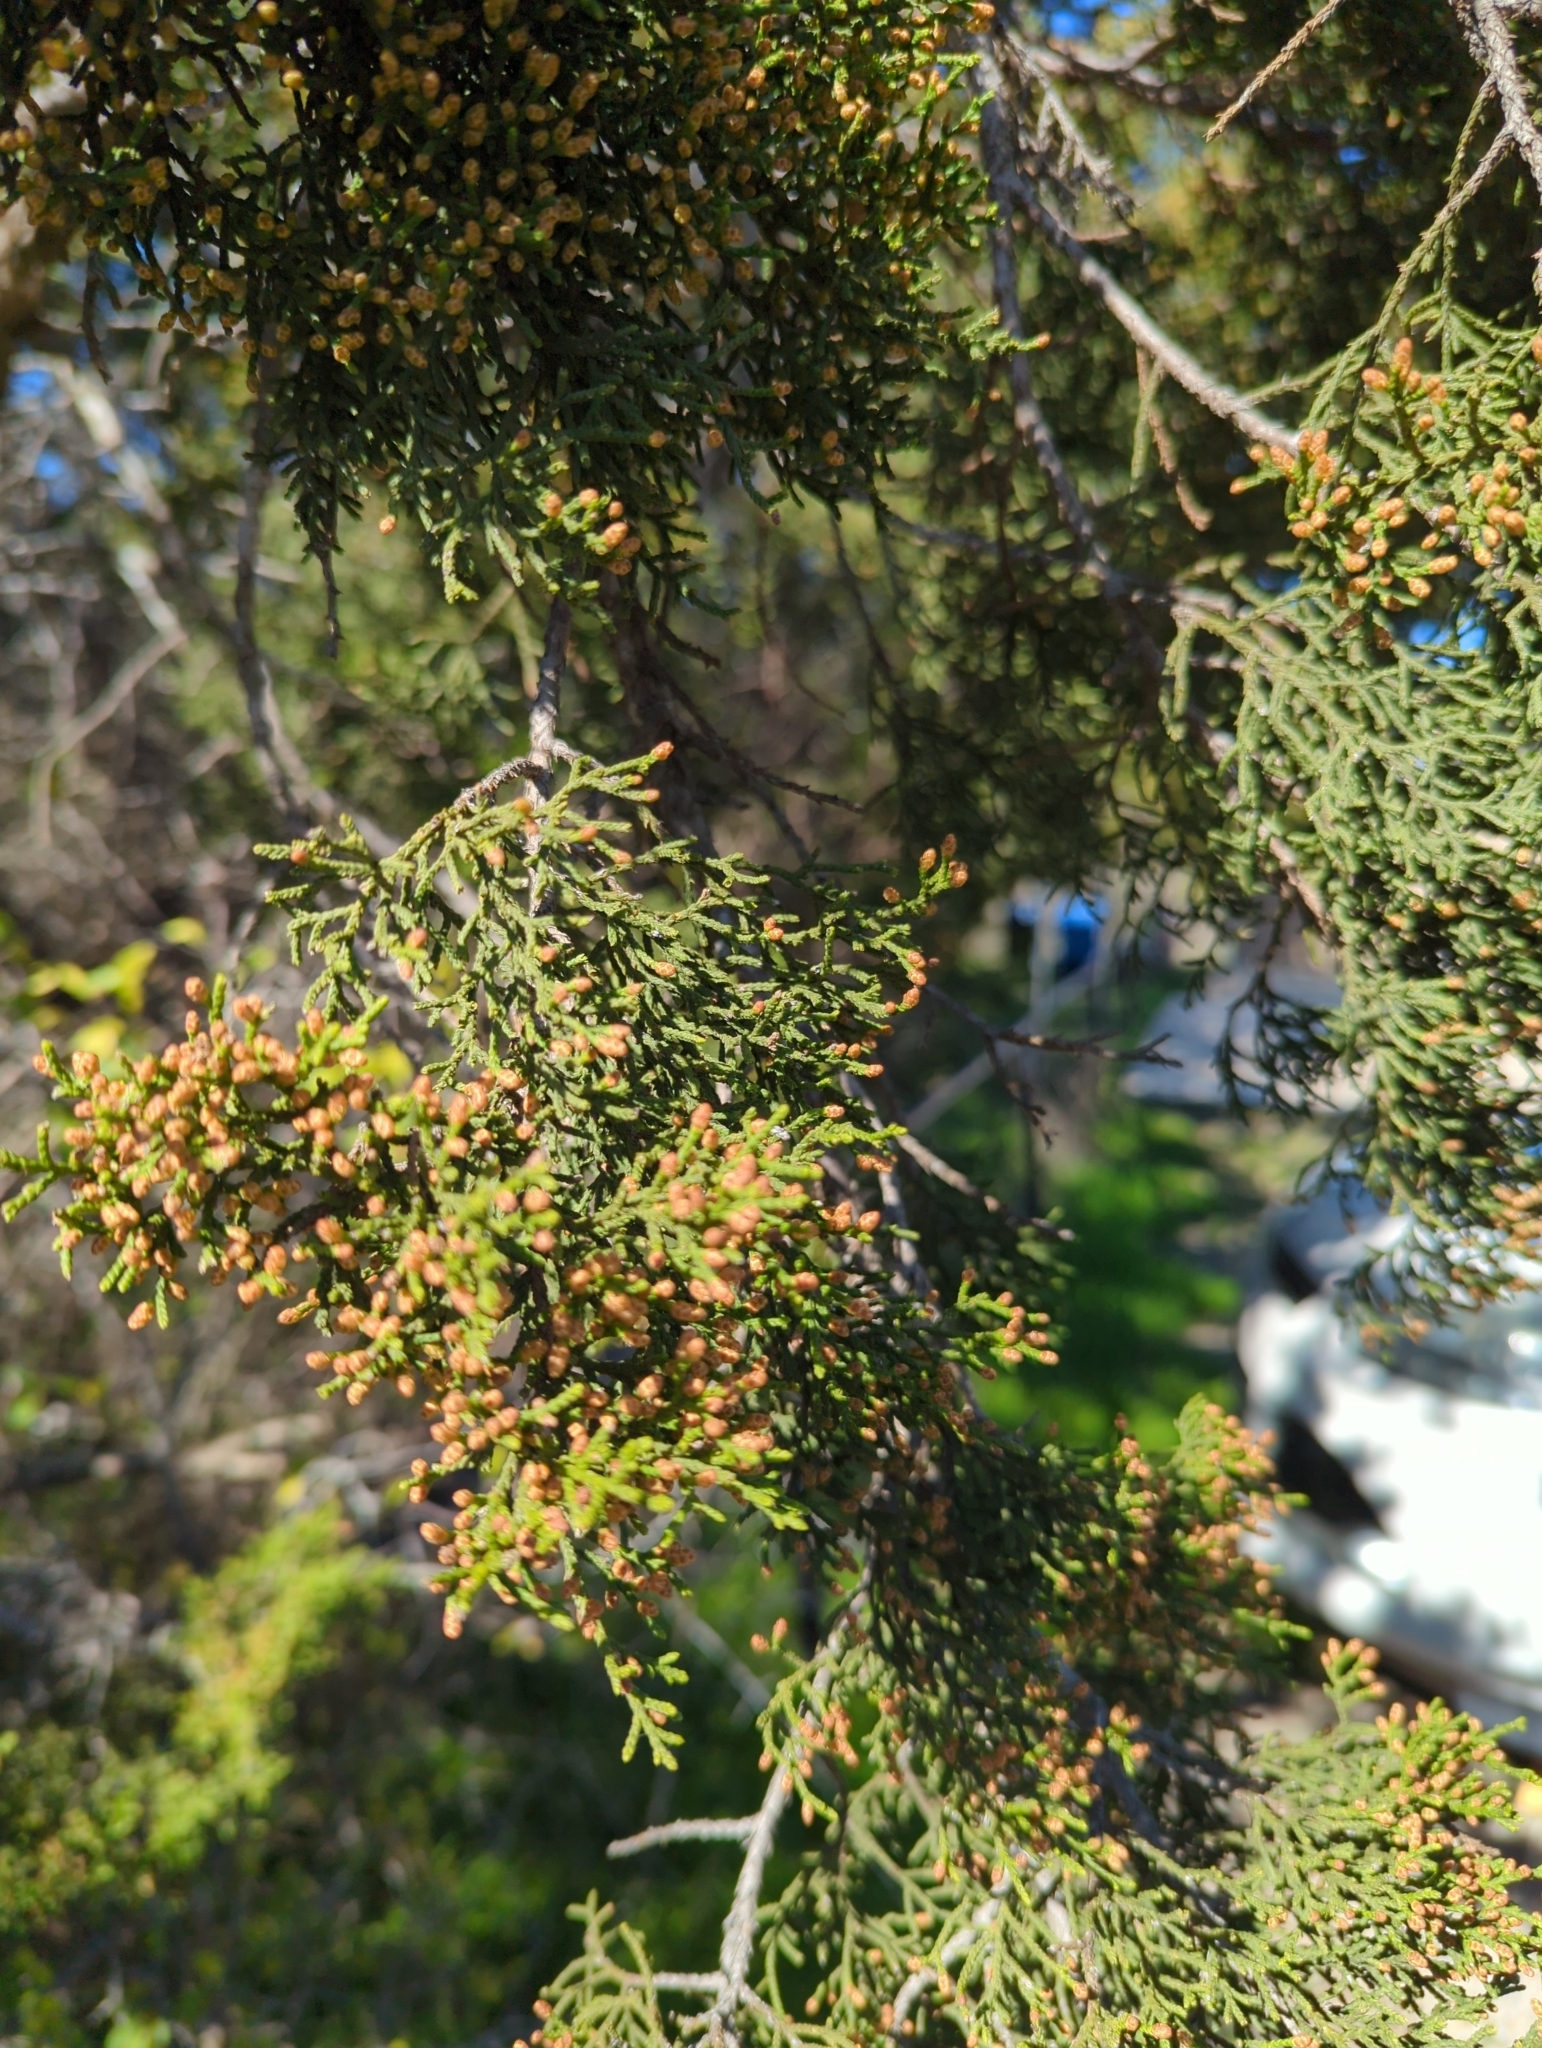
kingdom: Plantae
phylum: Tracheophyta
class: Pinopsida
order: Pinales
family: Cupressaceae
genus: Juniperus
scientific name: Juniperus ashei
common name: Mexican juniper
